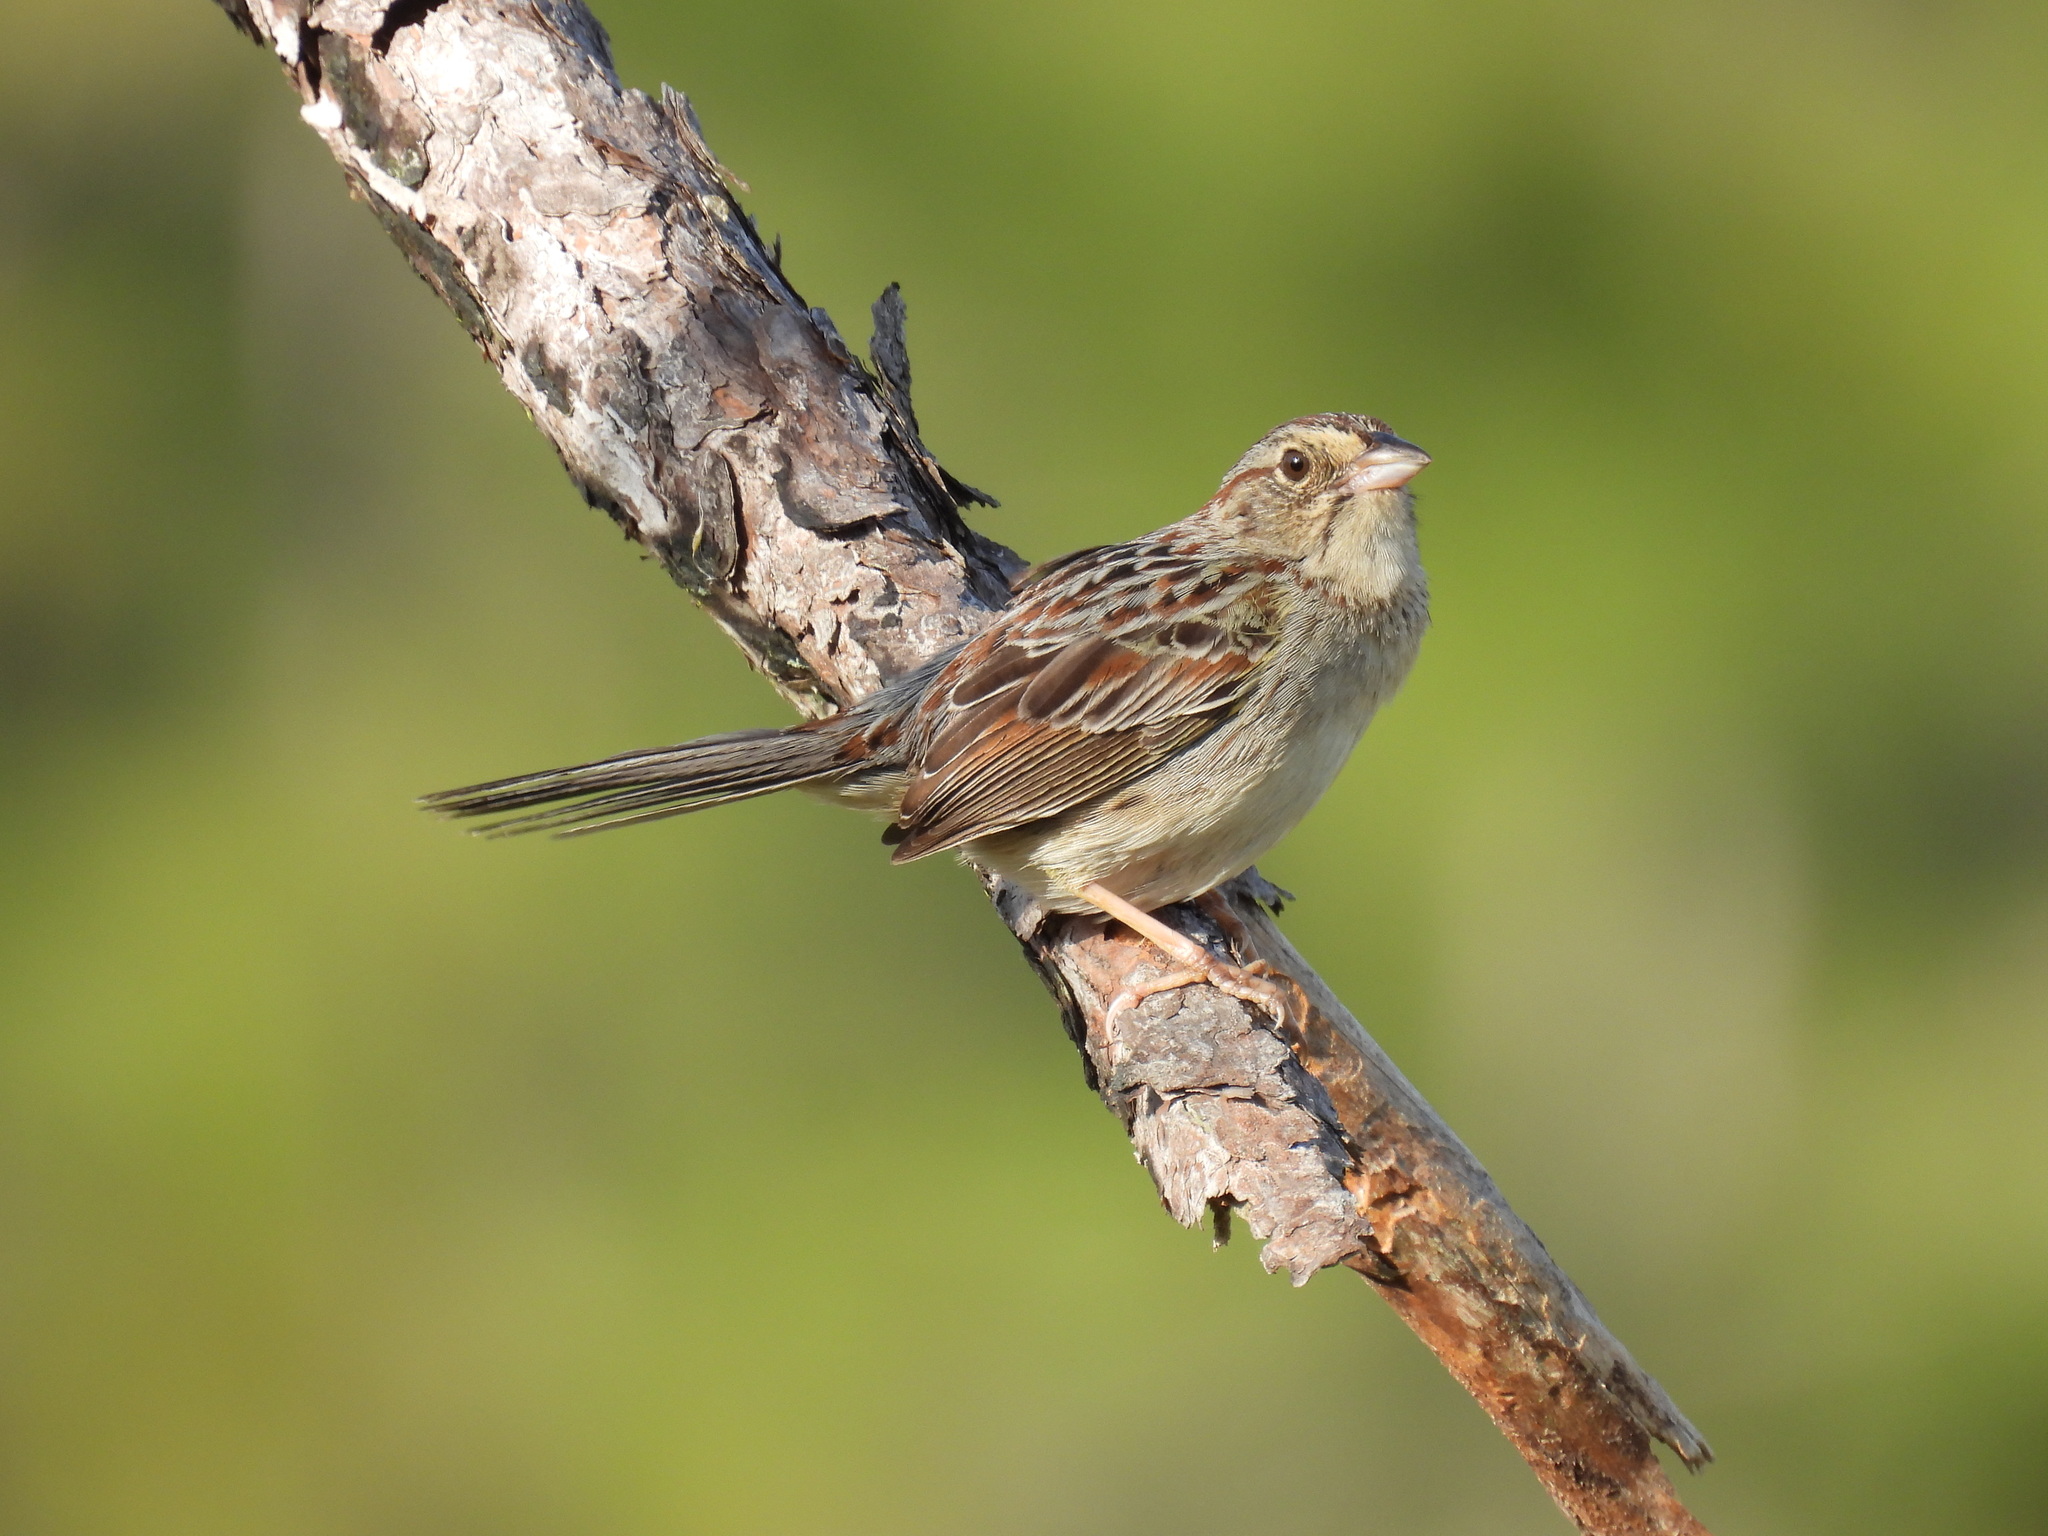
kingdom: Animalia
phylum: Chordata
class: Aves
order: Passeriformes
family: Passerellidae
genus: Peucaea
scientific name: Peucaea aestivalis
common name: Bachman's sparrow
